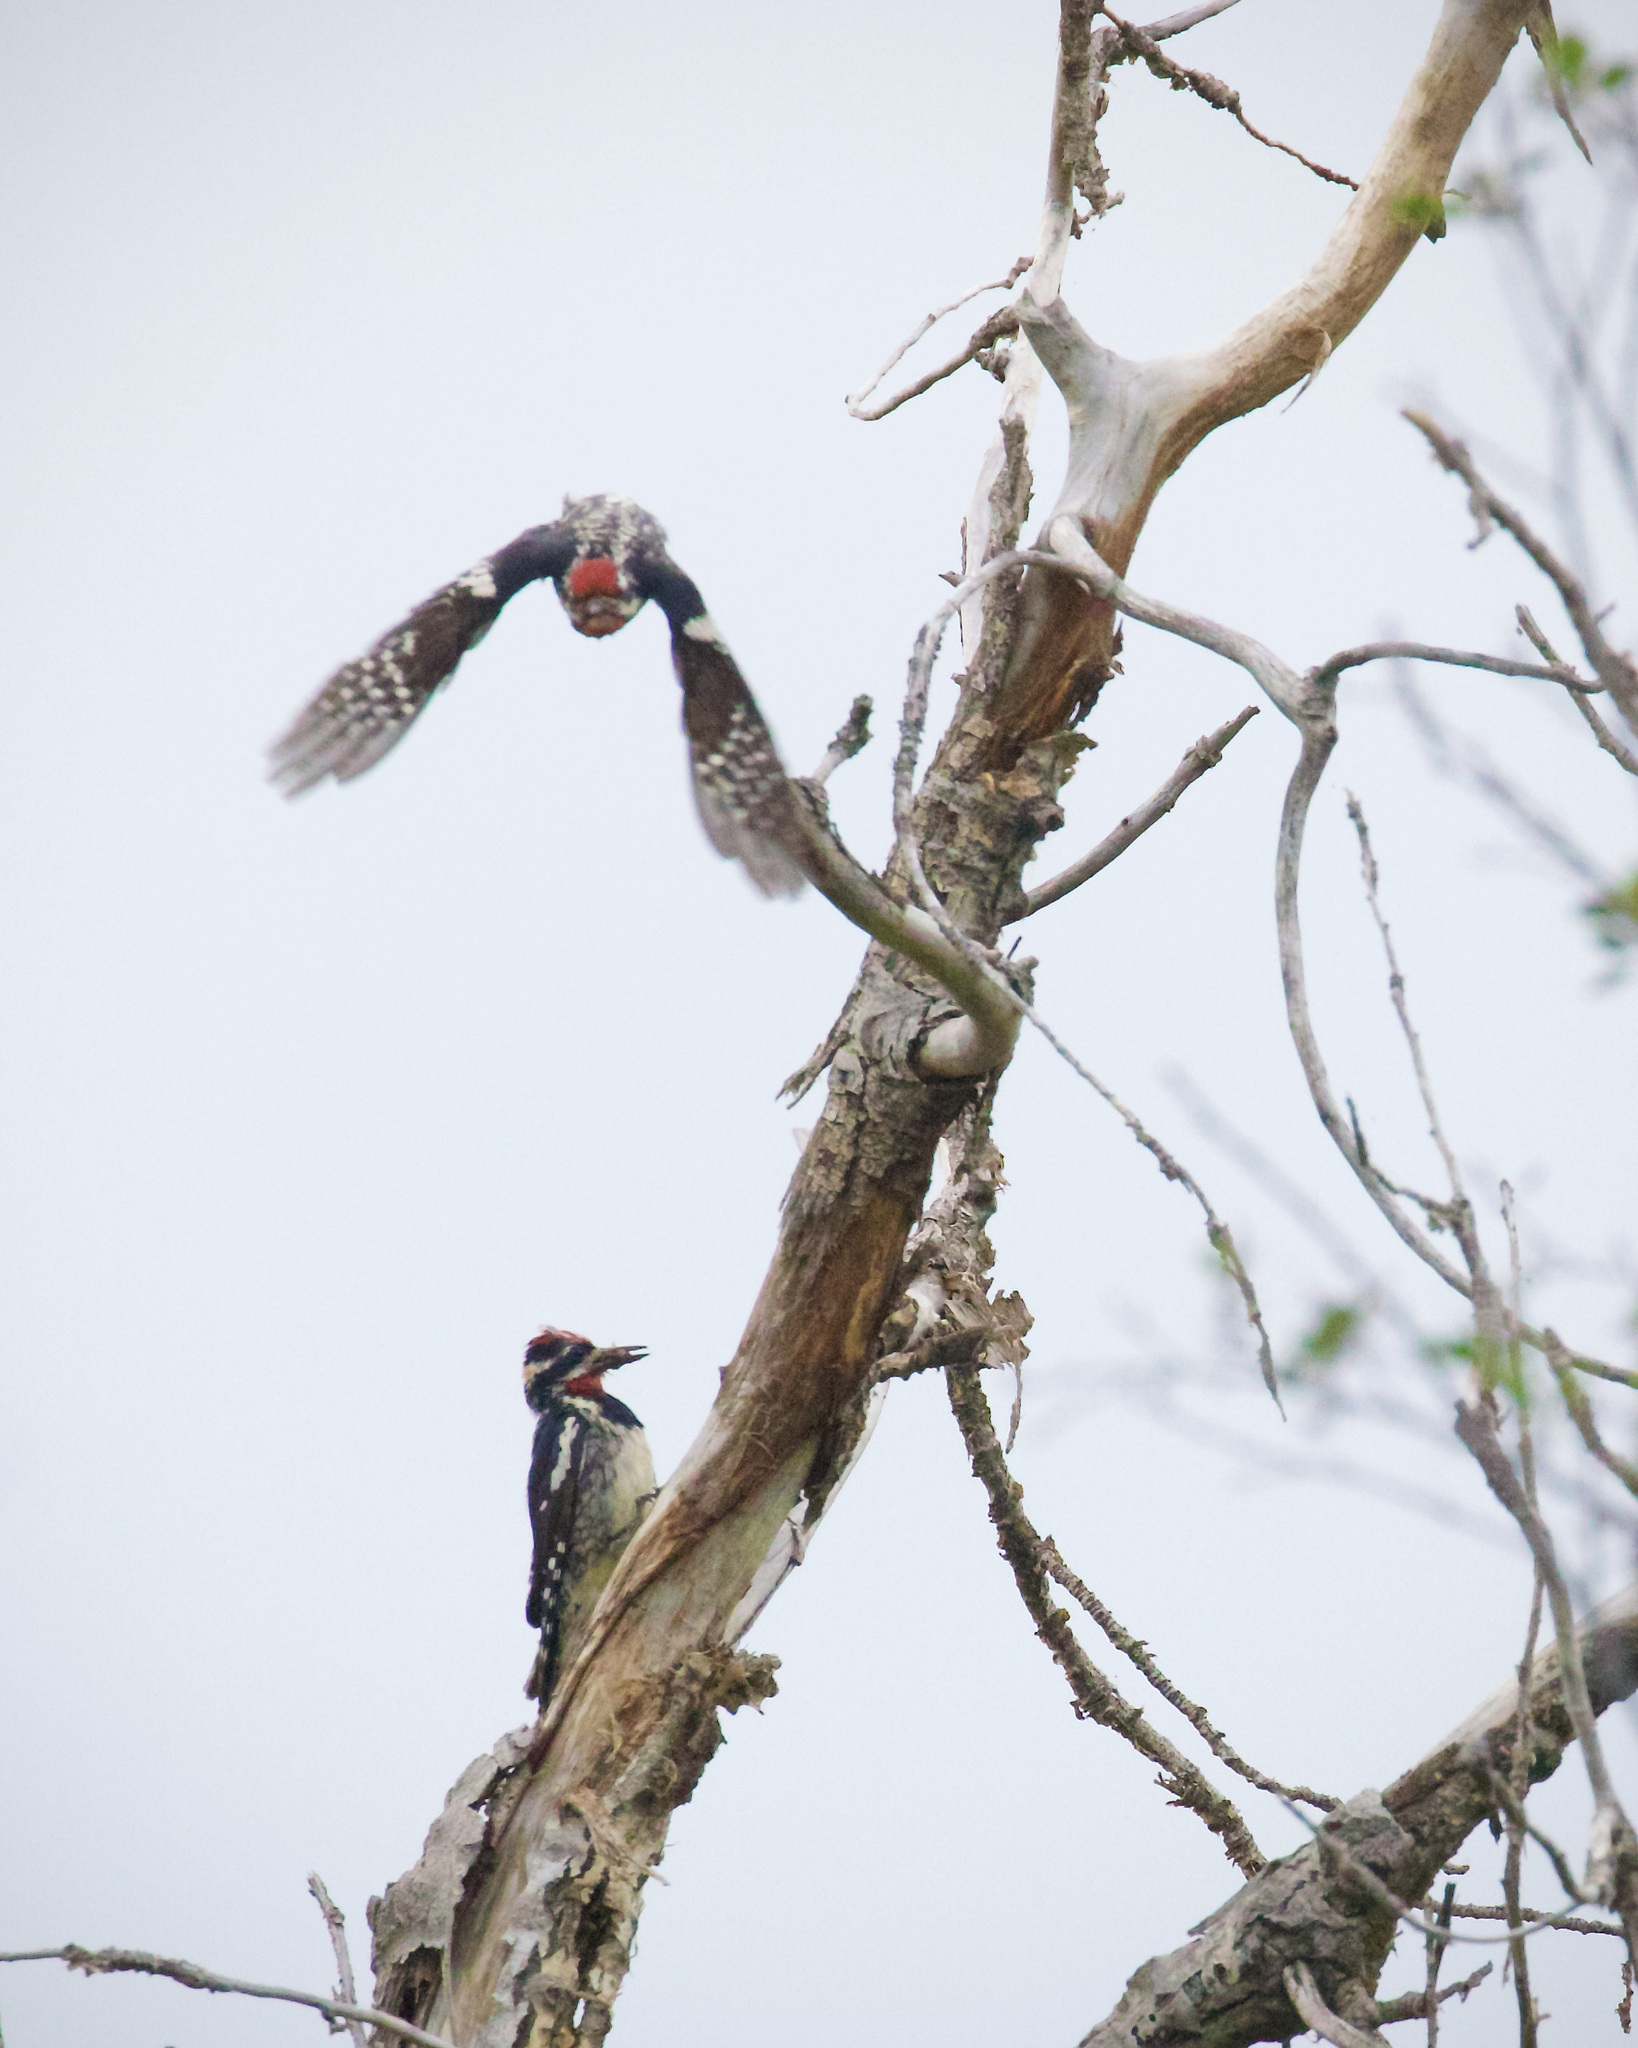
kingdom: Animalia
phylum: Chordata
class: Aves
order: Piciformes
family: Picidae
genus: Sphyrapicus
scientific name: Sphyrapicus nuchalis
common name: Red-naped sapsucker
